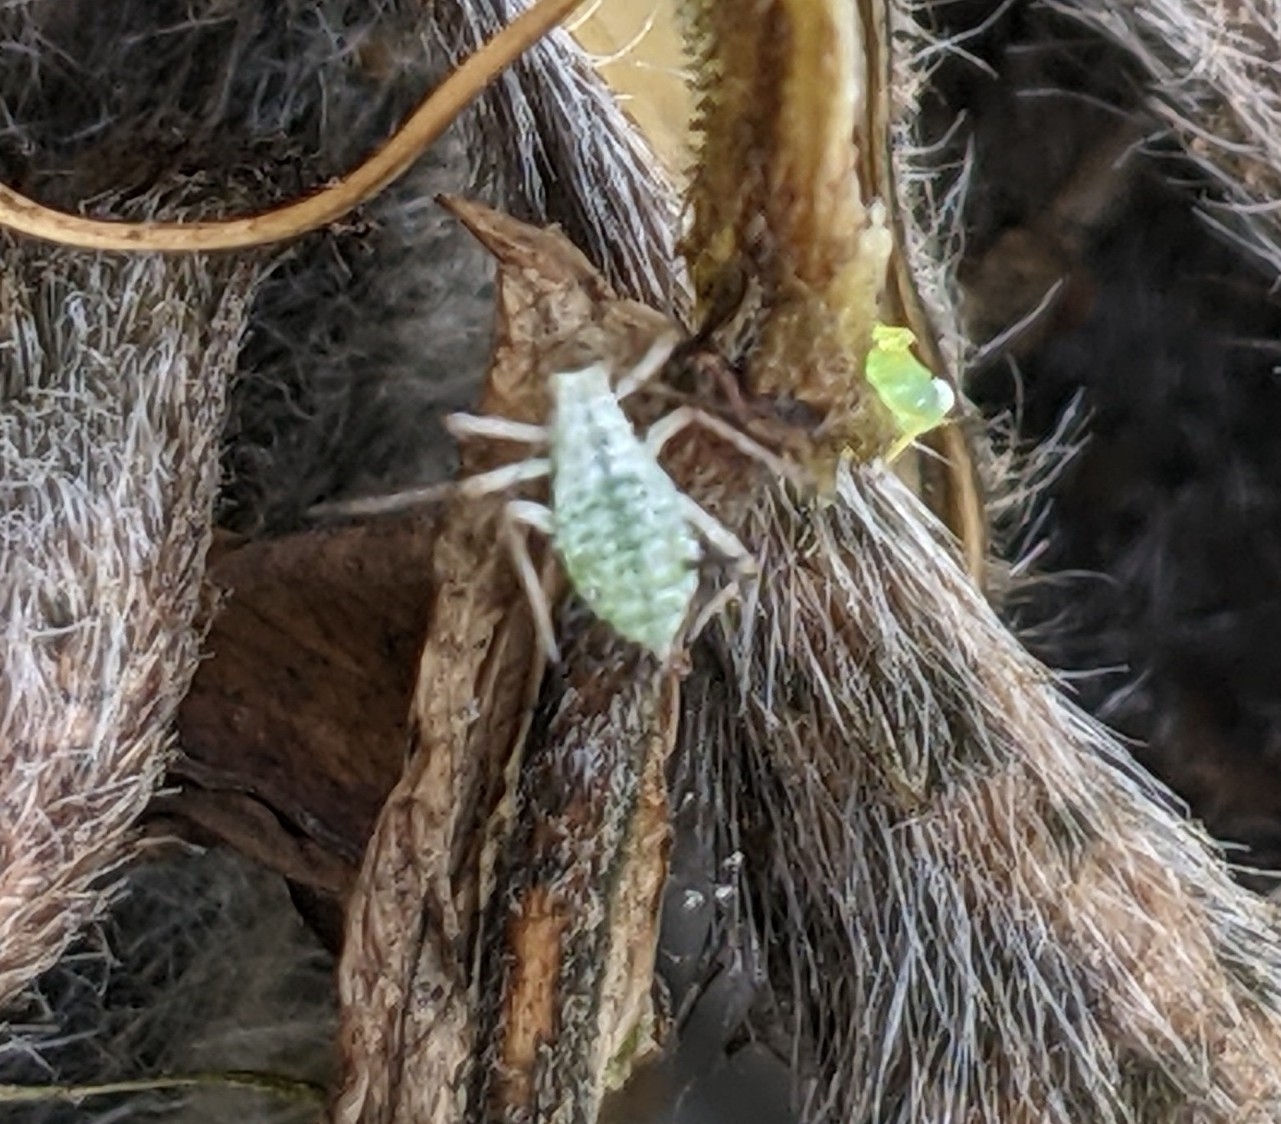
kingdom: Animalia
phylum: Arthropoda
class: Insecta
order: Hemiptera
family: Aphididae
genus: Macrosiphum
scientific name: Macrosiphum albifrons
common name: Lupine aphid
